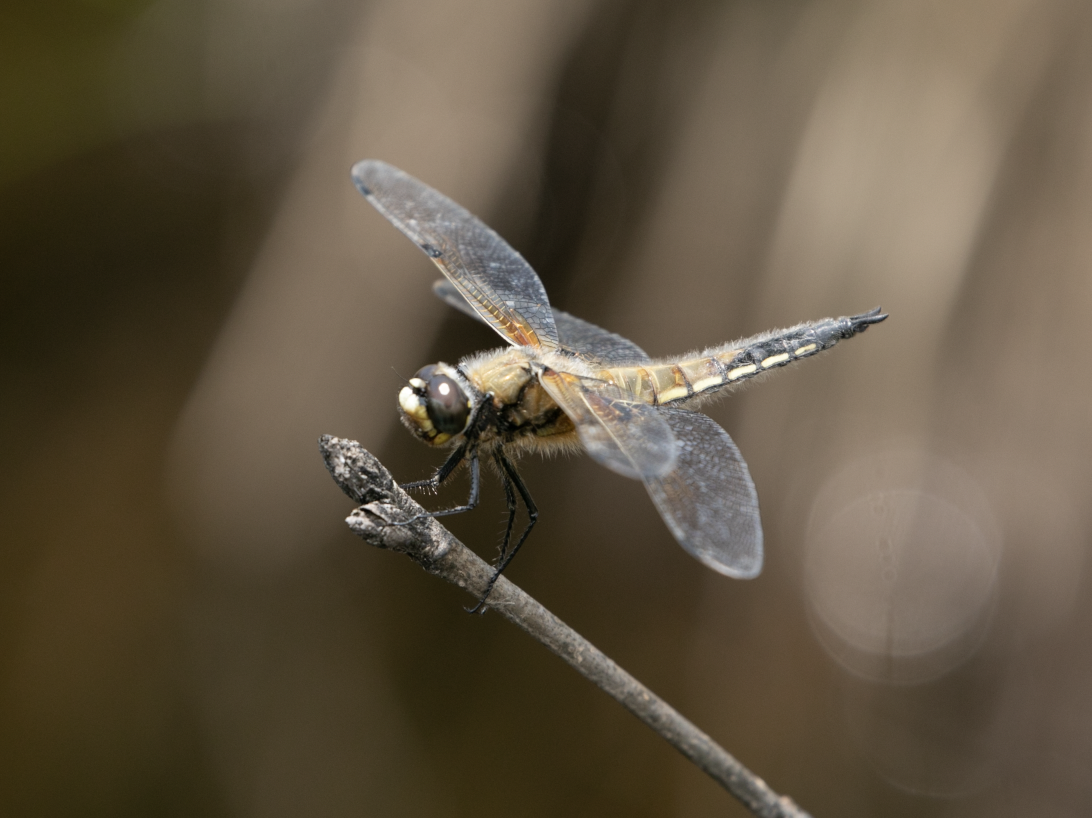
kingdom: Animalia
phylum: Arthropoda
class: Insecta
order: Odonata
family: Libellulidae
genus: Libellula
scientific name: Libellula quadrimaculata
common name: Four-spotted chaser
